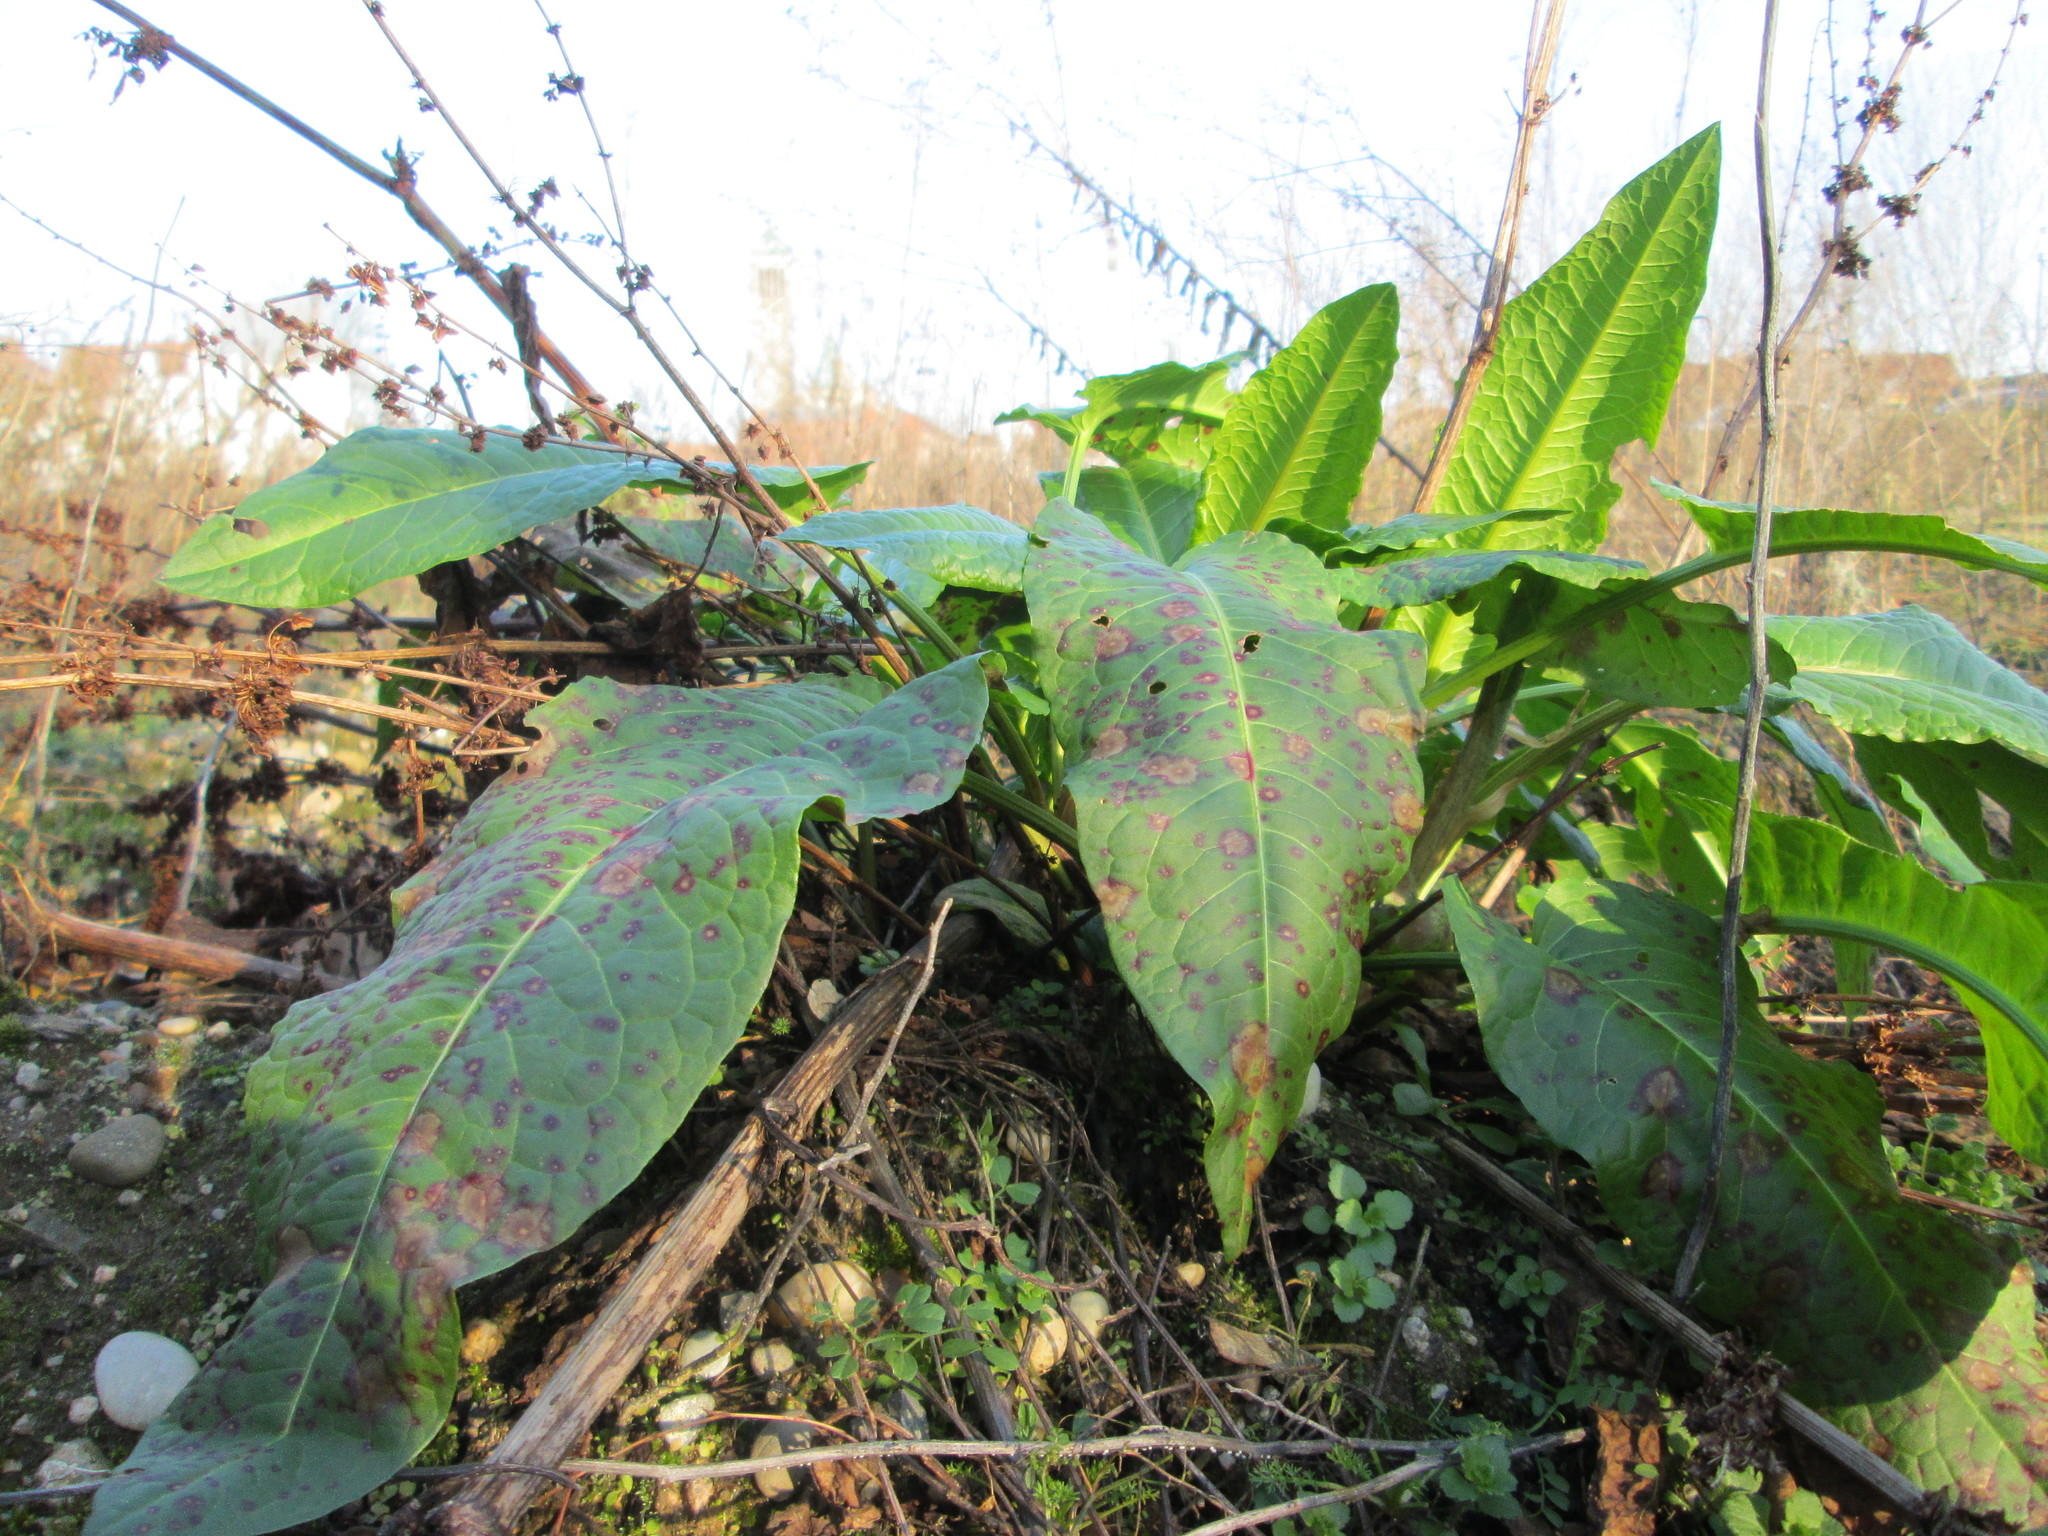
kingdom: Fungi
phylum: Ascomycota
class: Dothideomycetes
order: Mycosphaerellales
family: Mycosphaerellaceae
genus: Ramularia
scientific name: Ramularia rubella
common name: Red dock spot
